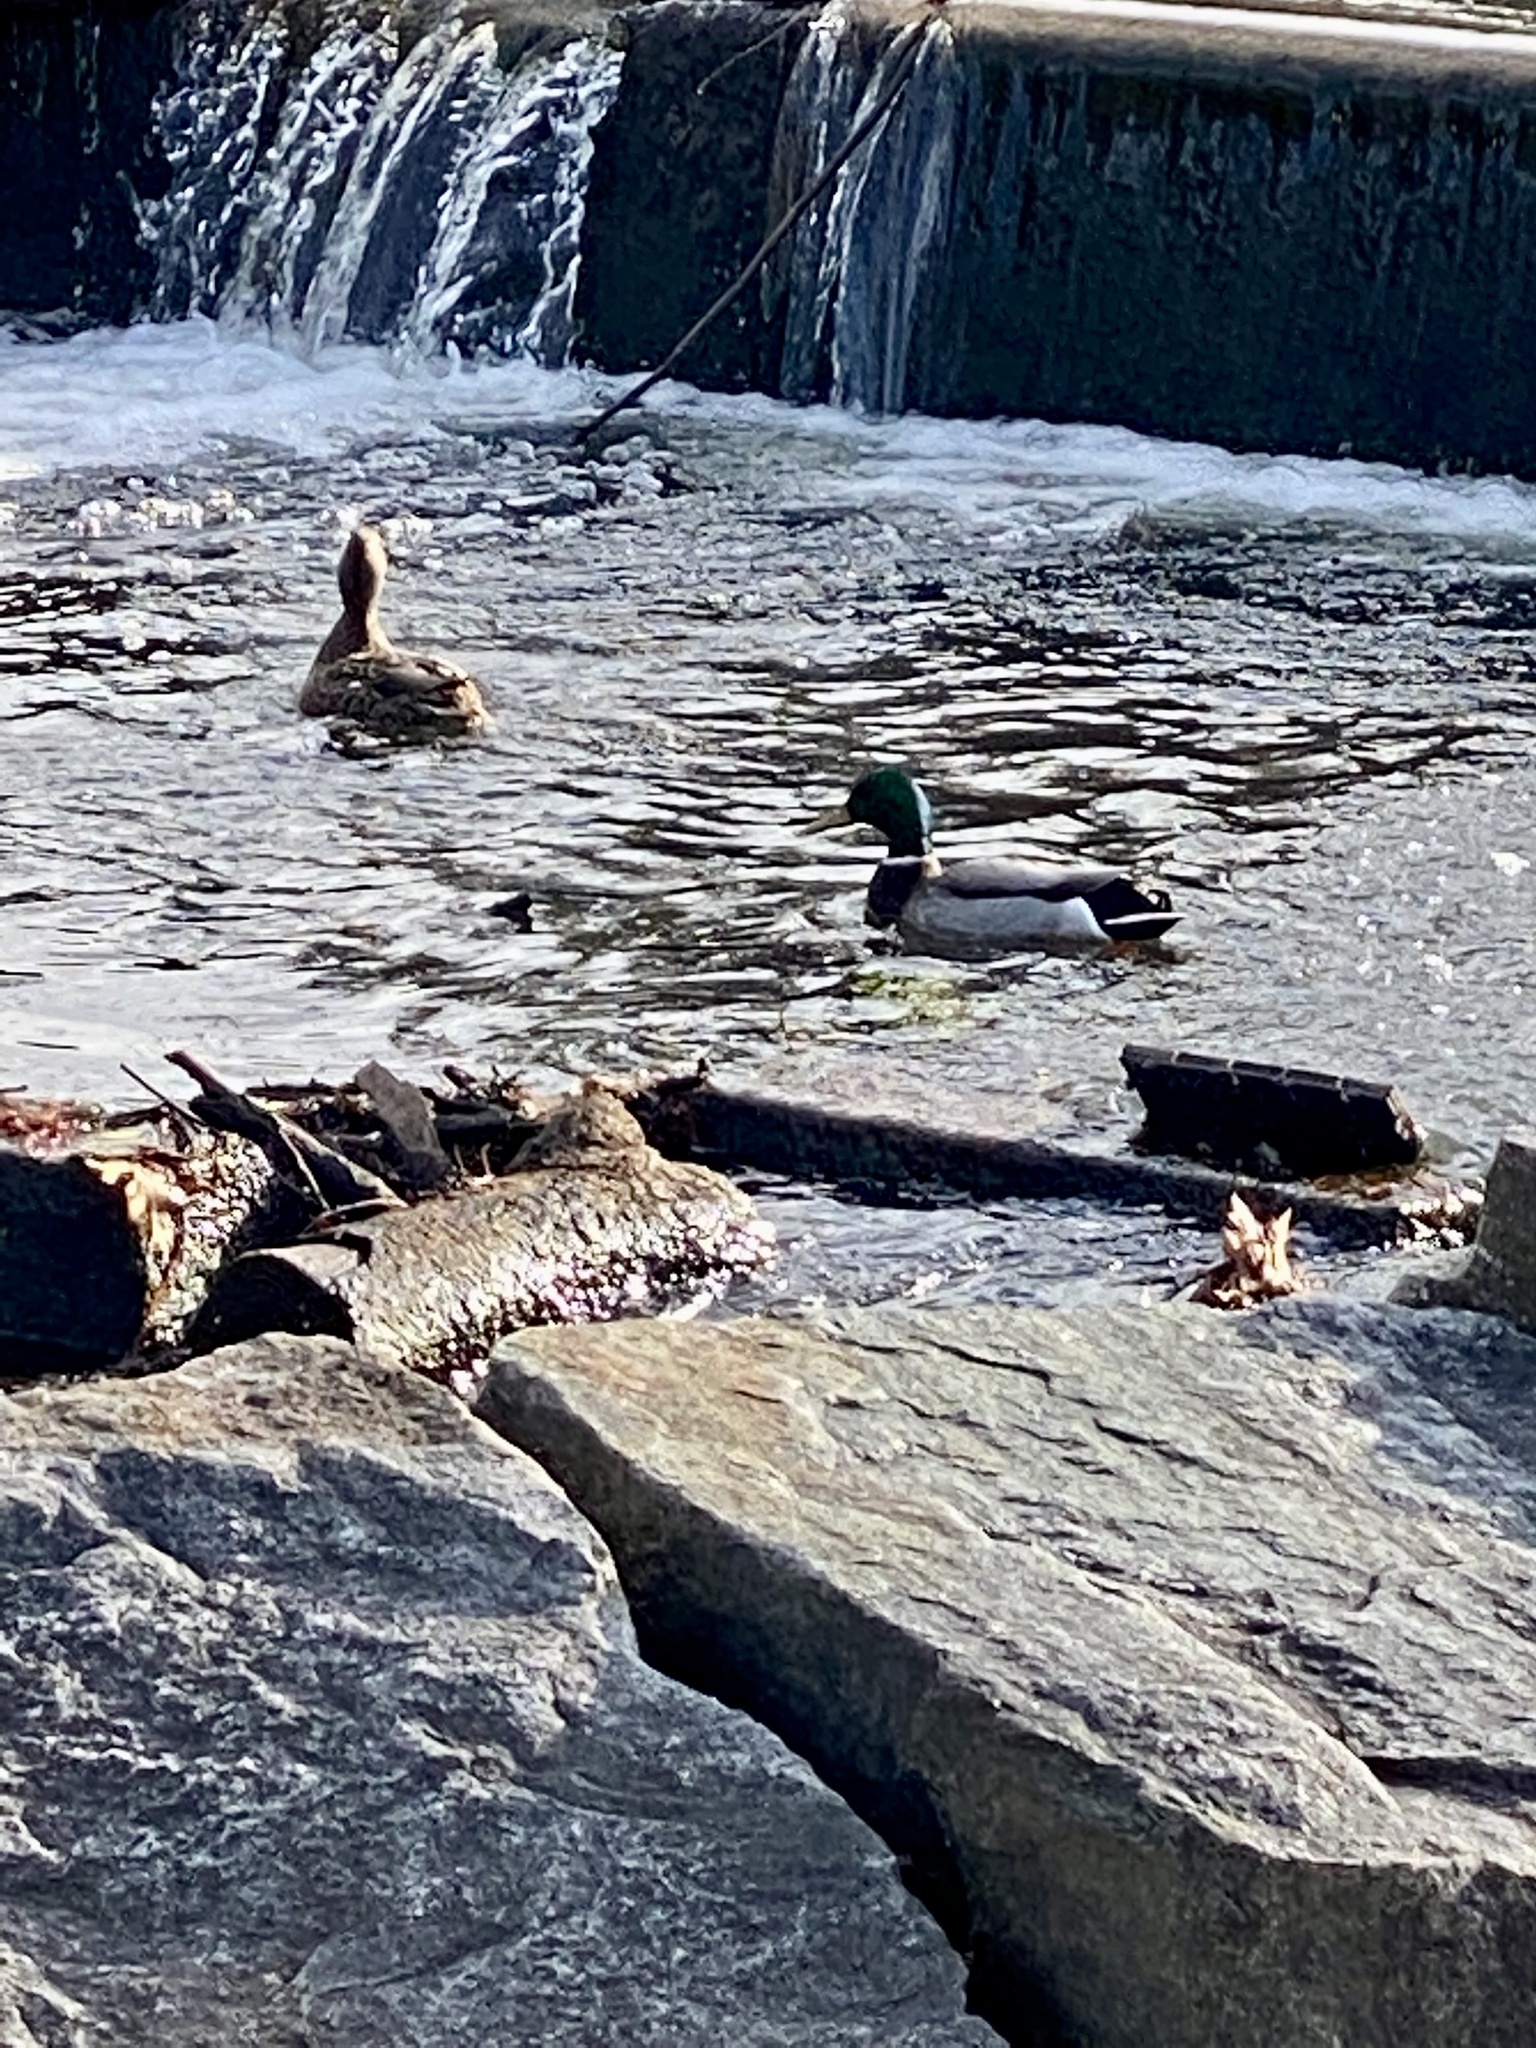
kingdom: Animalia
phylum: Chordata
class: Aves
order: Anseriformes
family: Anatidae
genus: Anas
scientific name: Anas platyrhynchos
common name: Mallard
